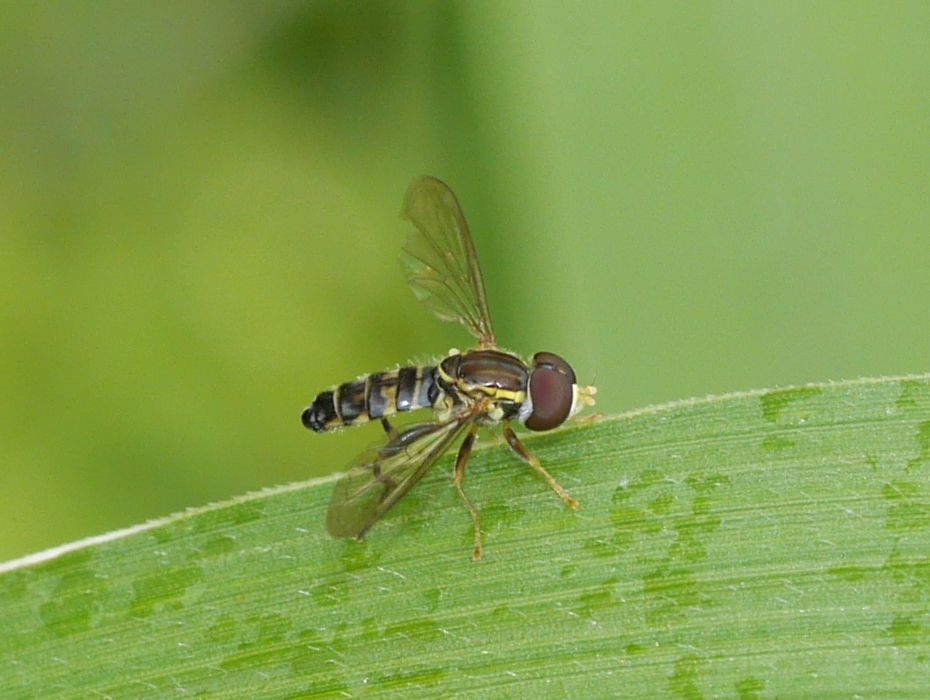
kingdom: Animalia
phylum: Arthropoda
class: Insecta
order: Diptera
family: Syrphidae
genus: Toxomerus
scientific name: Toxomerus geminatus
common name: Eastern calligrapher
